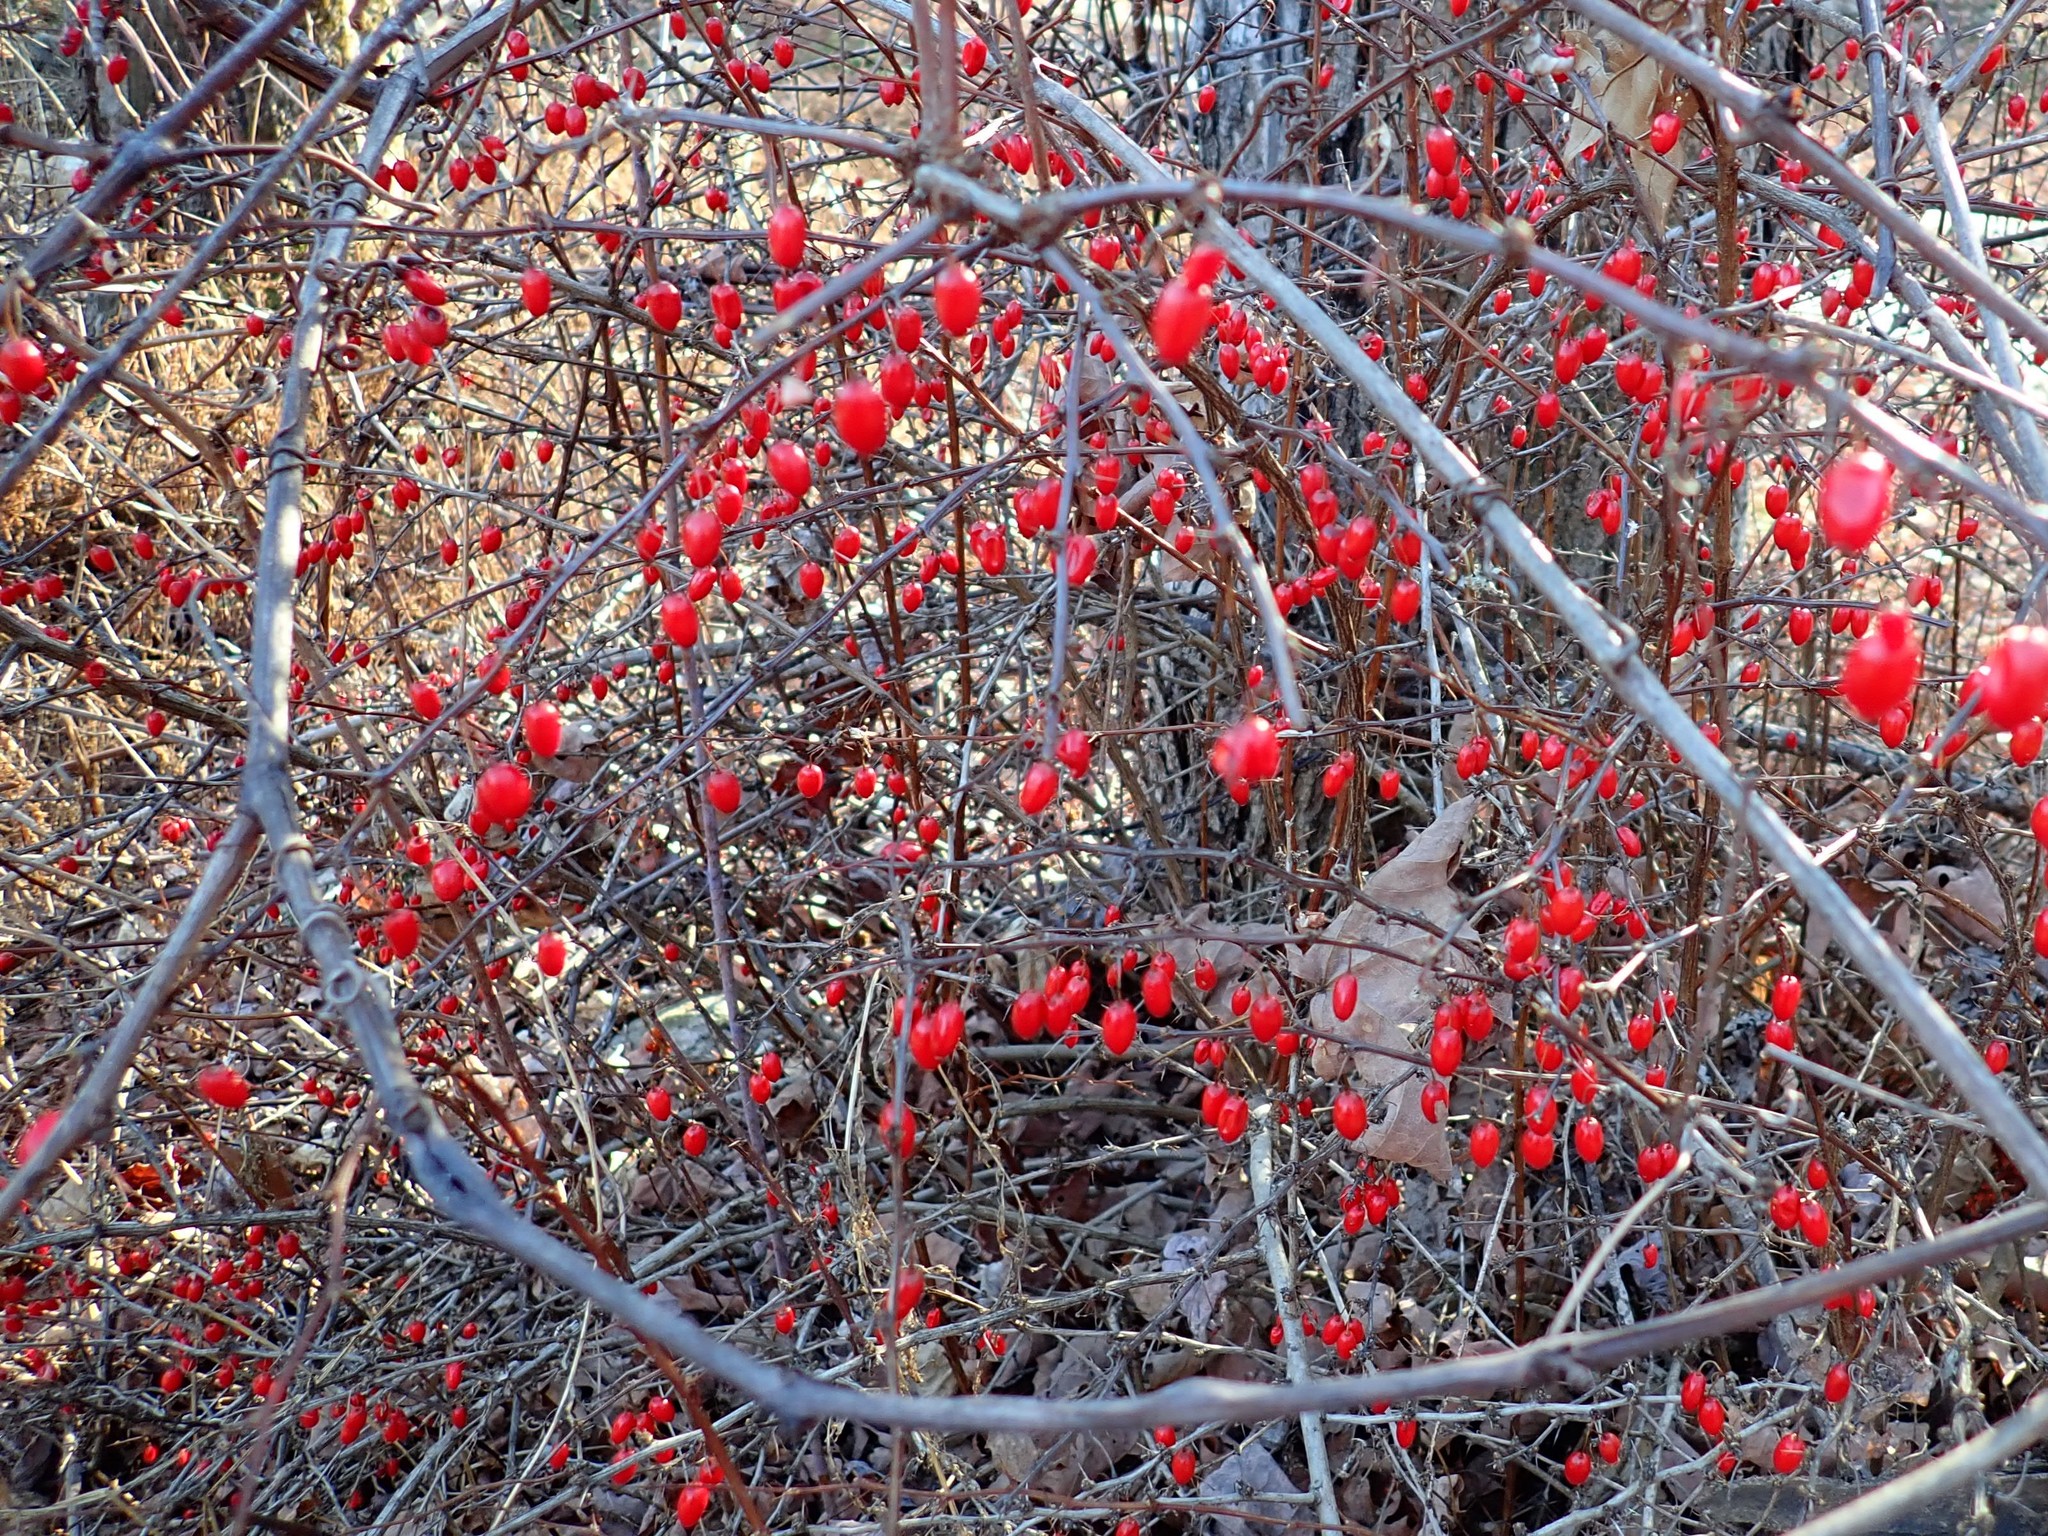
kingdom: Plantae
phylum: Tracheophyta
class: Magnoliopsida
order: Ranunculales
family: Berberidaceae
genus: Berberis
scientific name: Berberis thunbergii
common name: Japanese barberry
